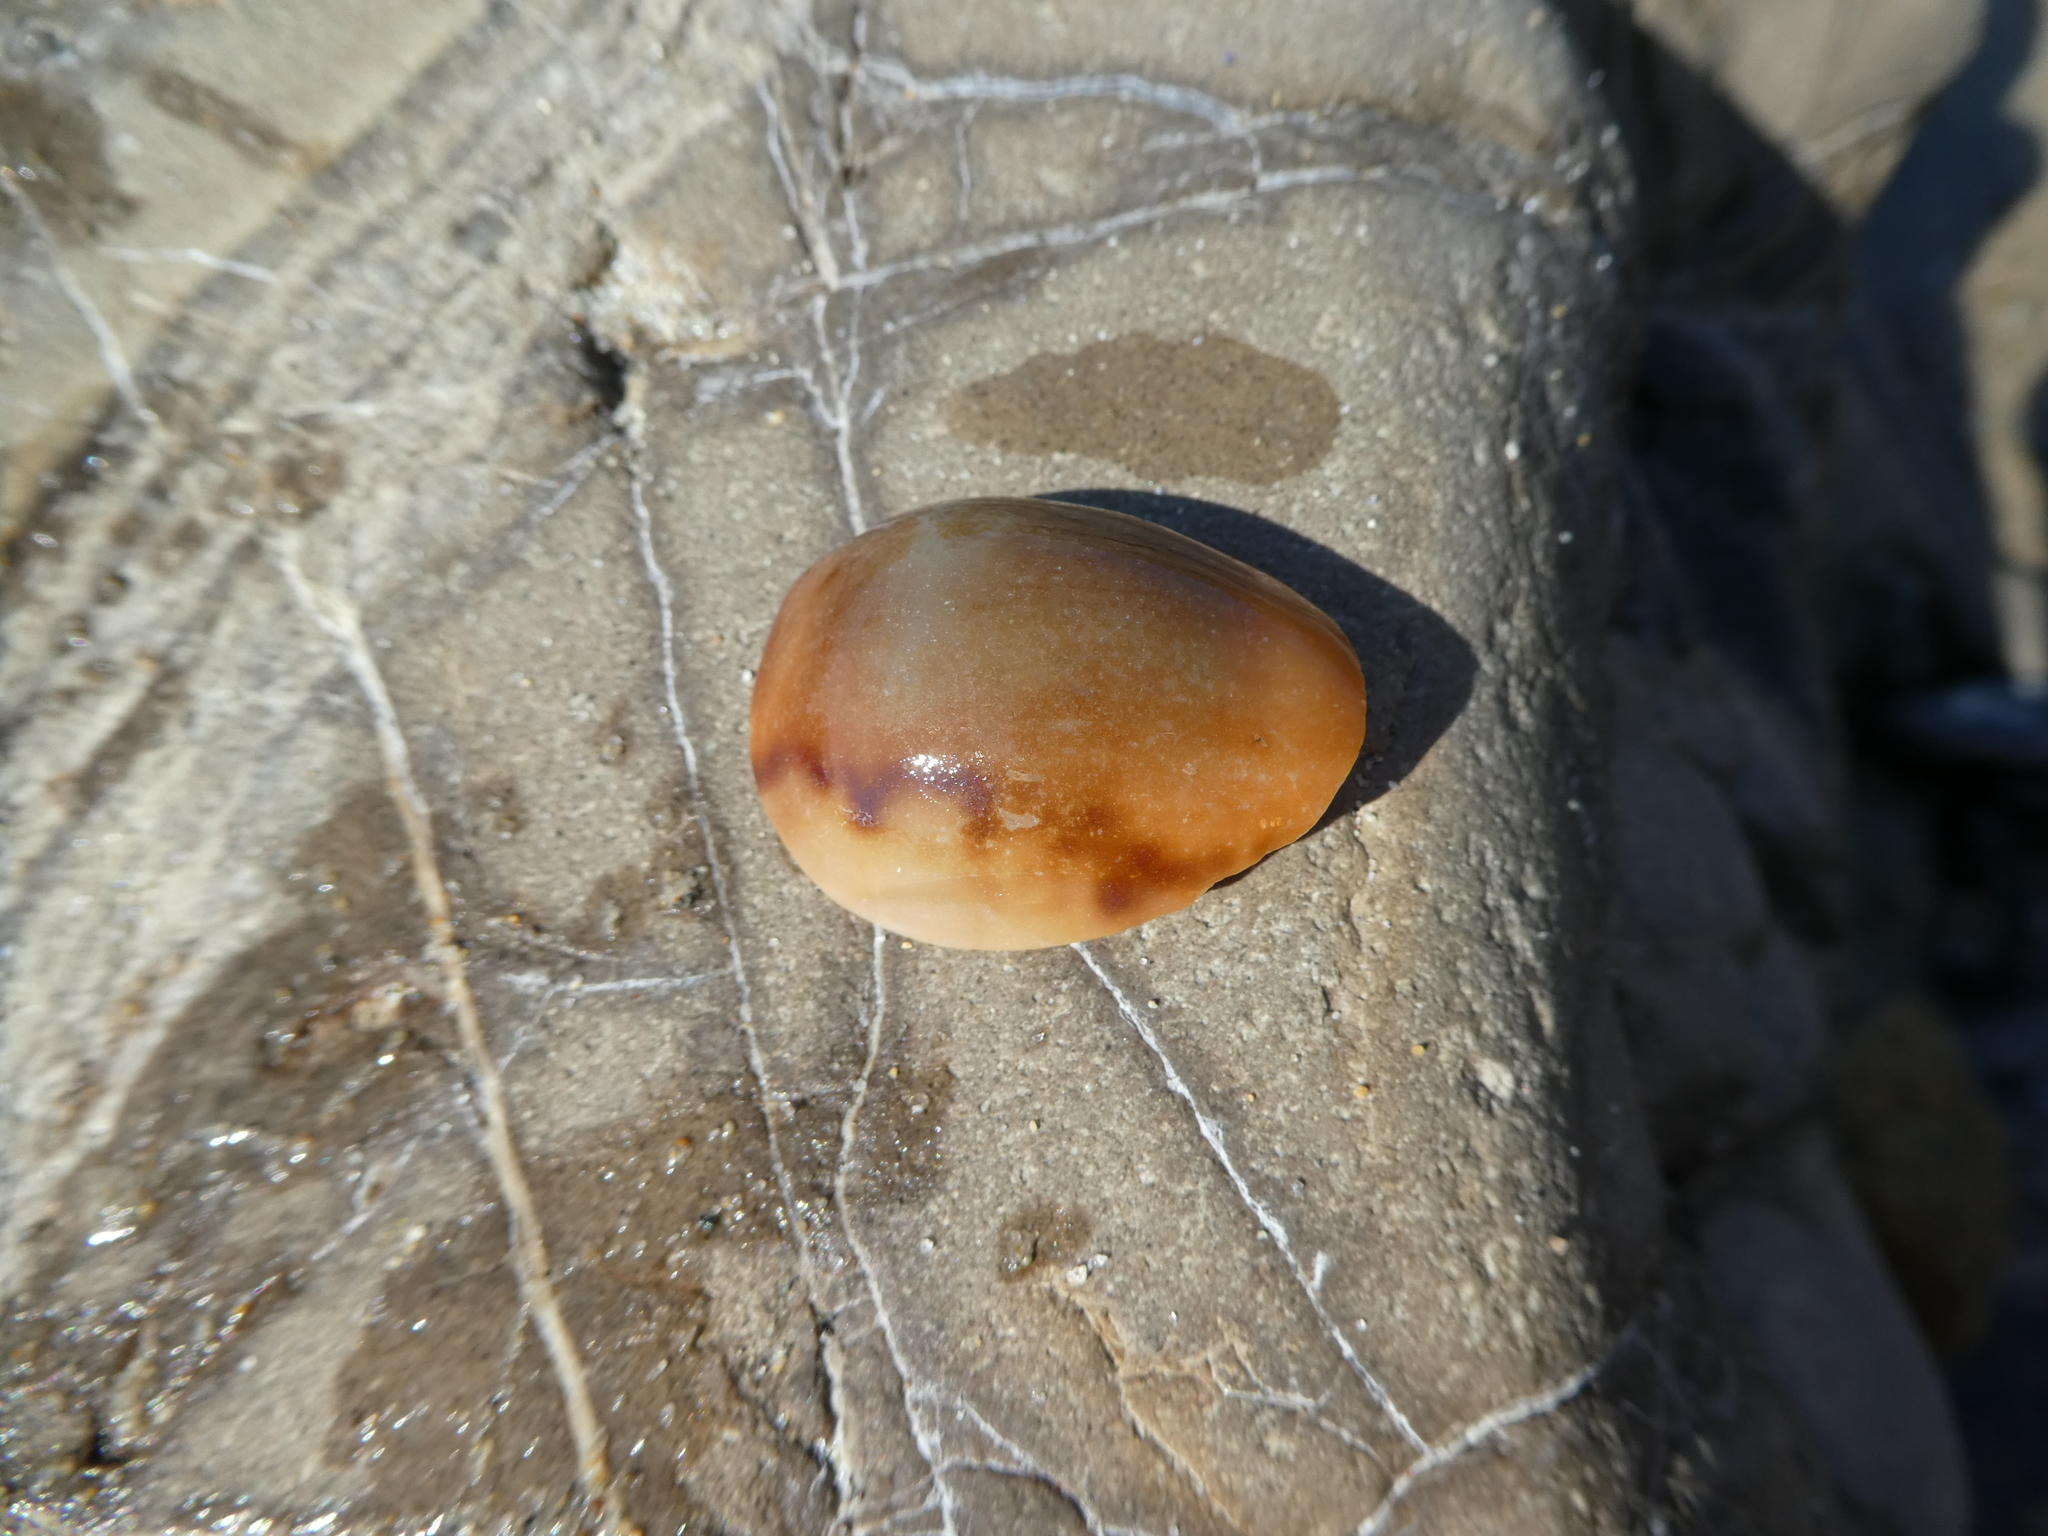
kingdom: Animalia
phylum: Mollusca
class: Gastropoda
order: Littorinimorpha
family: Cypraeidae
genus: Neobernaya
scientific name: Neobernaya spadicea
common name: Chestnut cowrie
